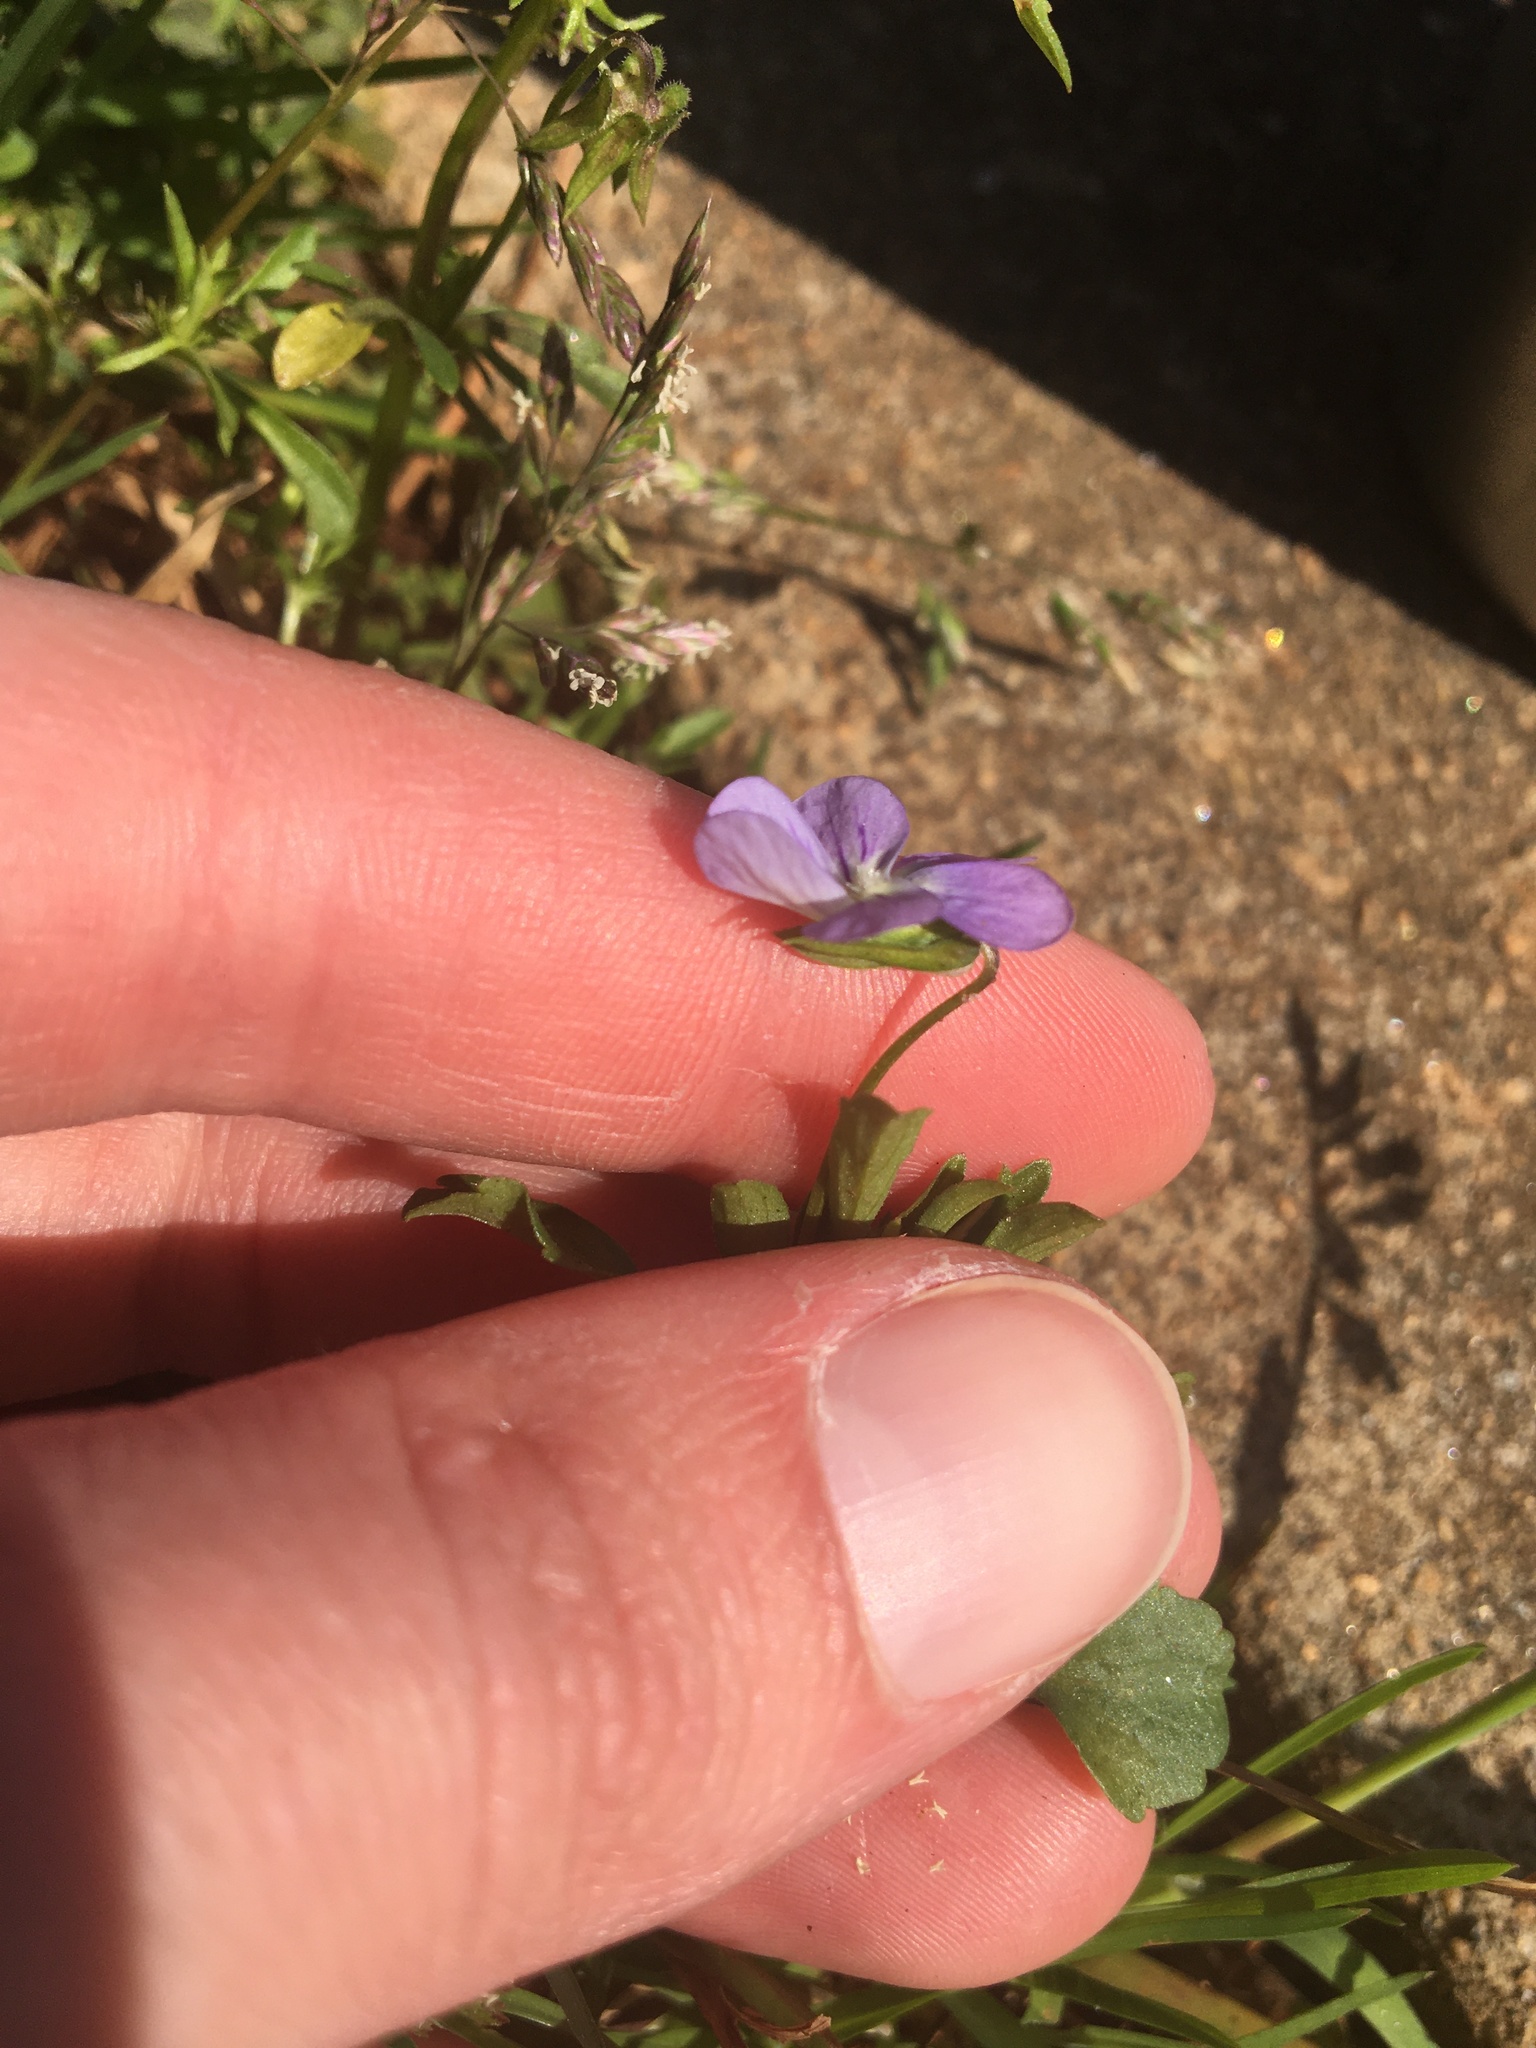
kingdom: Plantae
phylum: Tracheophyta
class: Magnoliopsida
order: Malpighiales
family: Violaceae
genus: Viola
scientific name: Viola rafinesquei
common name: American field pansy
